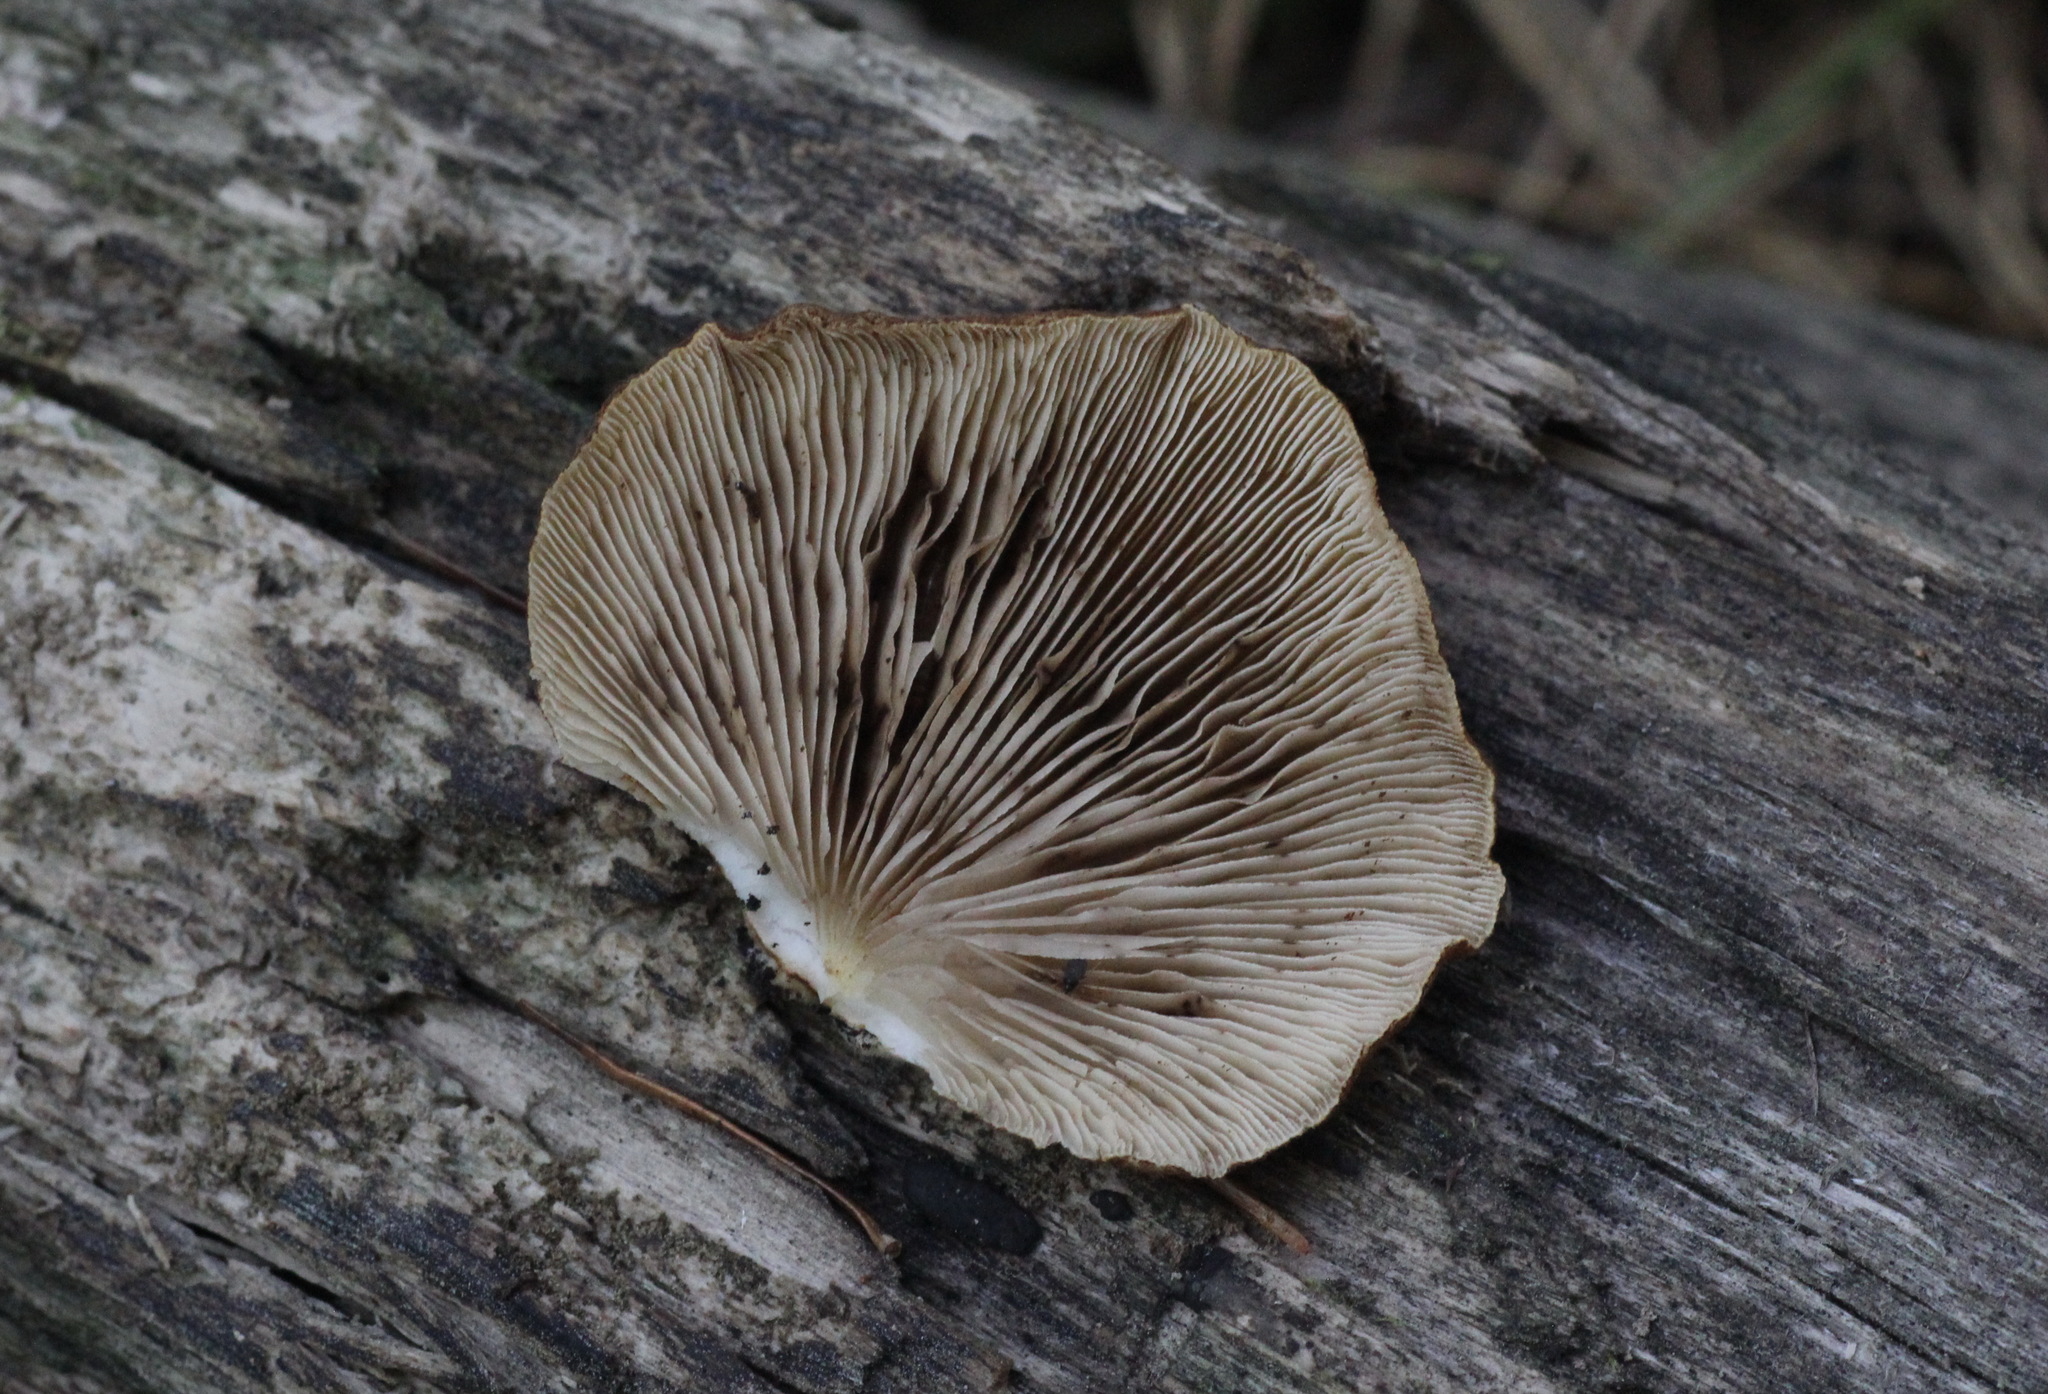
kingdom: Fungi
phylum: Basidiomycota
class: Agaricomycetes
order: Agaricales
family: Crepidotaceae
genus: Crepidotus
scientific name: Crepidotus applanatus
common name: Flat crep
